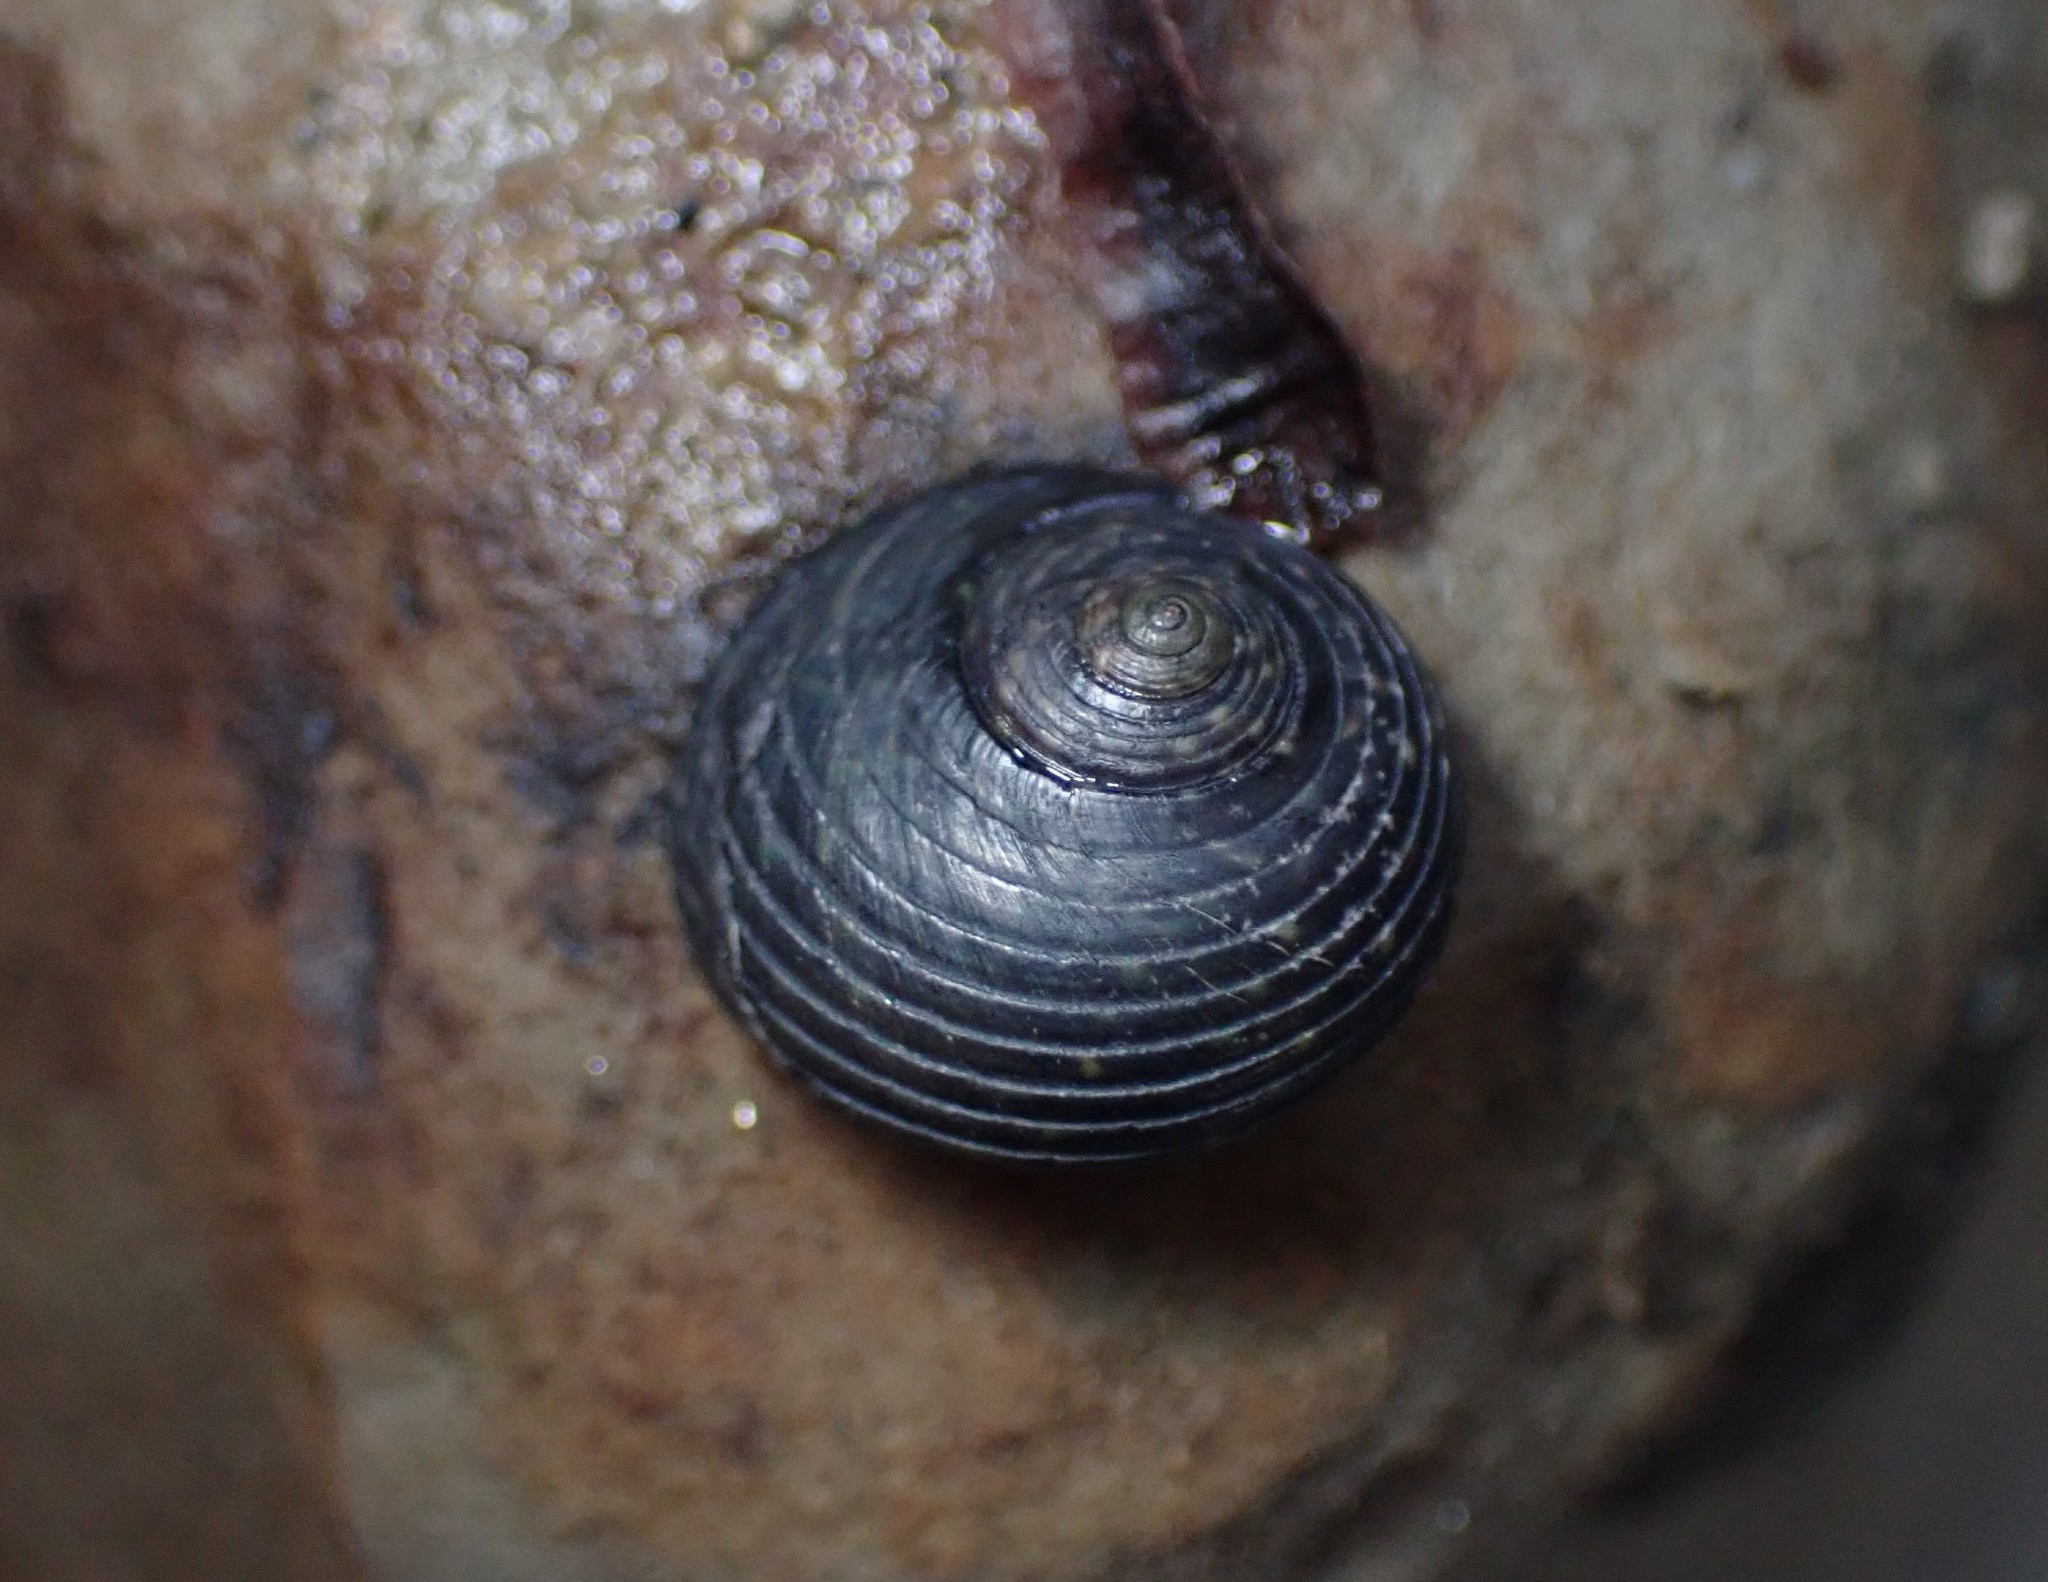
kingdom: Animalia
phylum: Mollusca
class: Gastropoda
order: Trochida
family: Trochidae
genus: Diloma
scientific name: Diloma zelandicum
